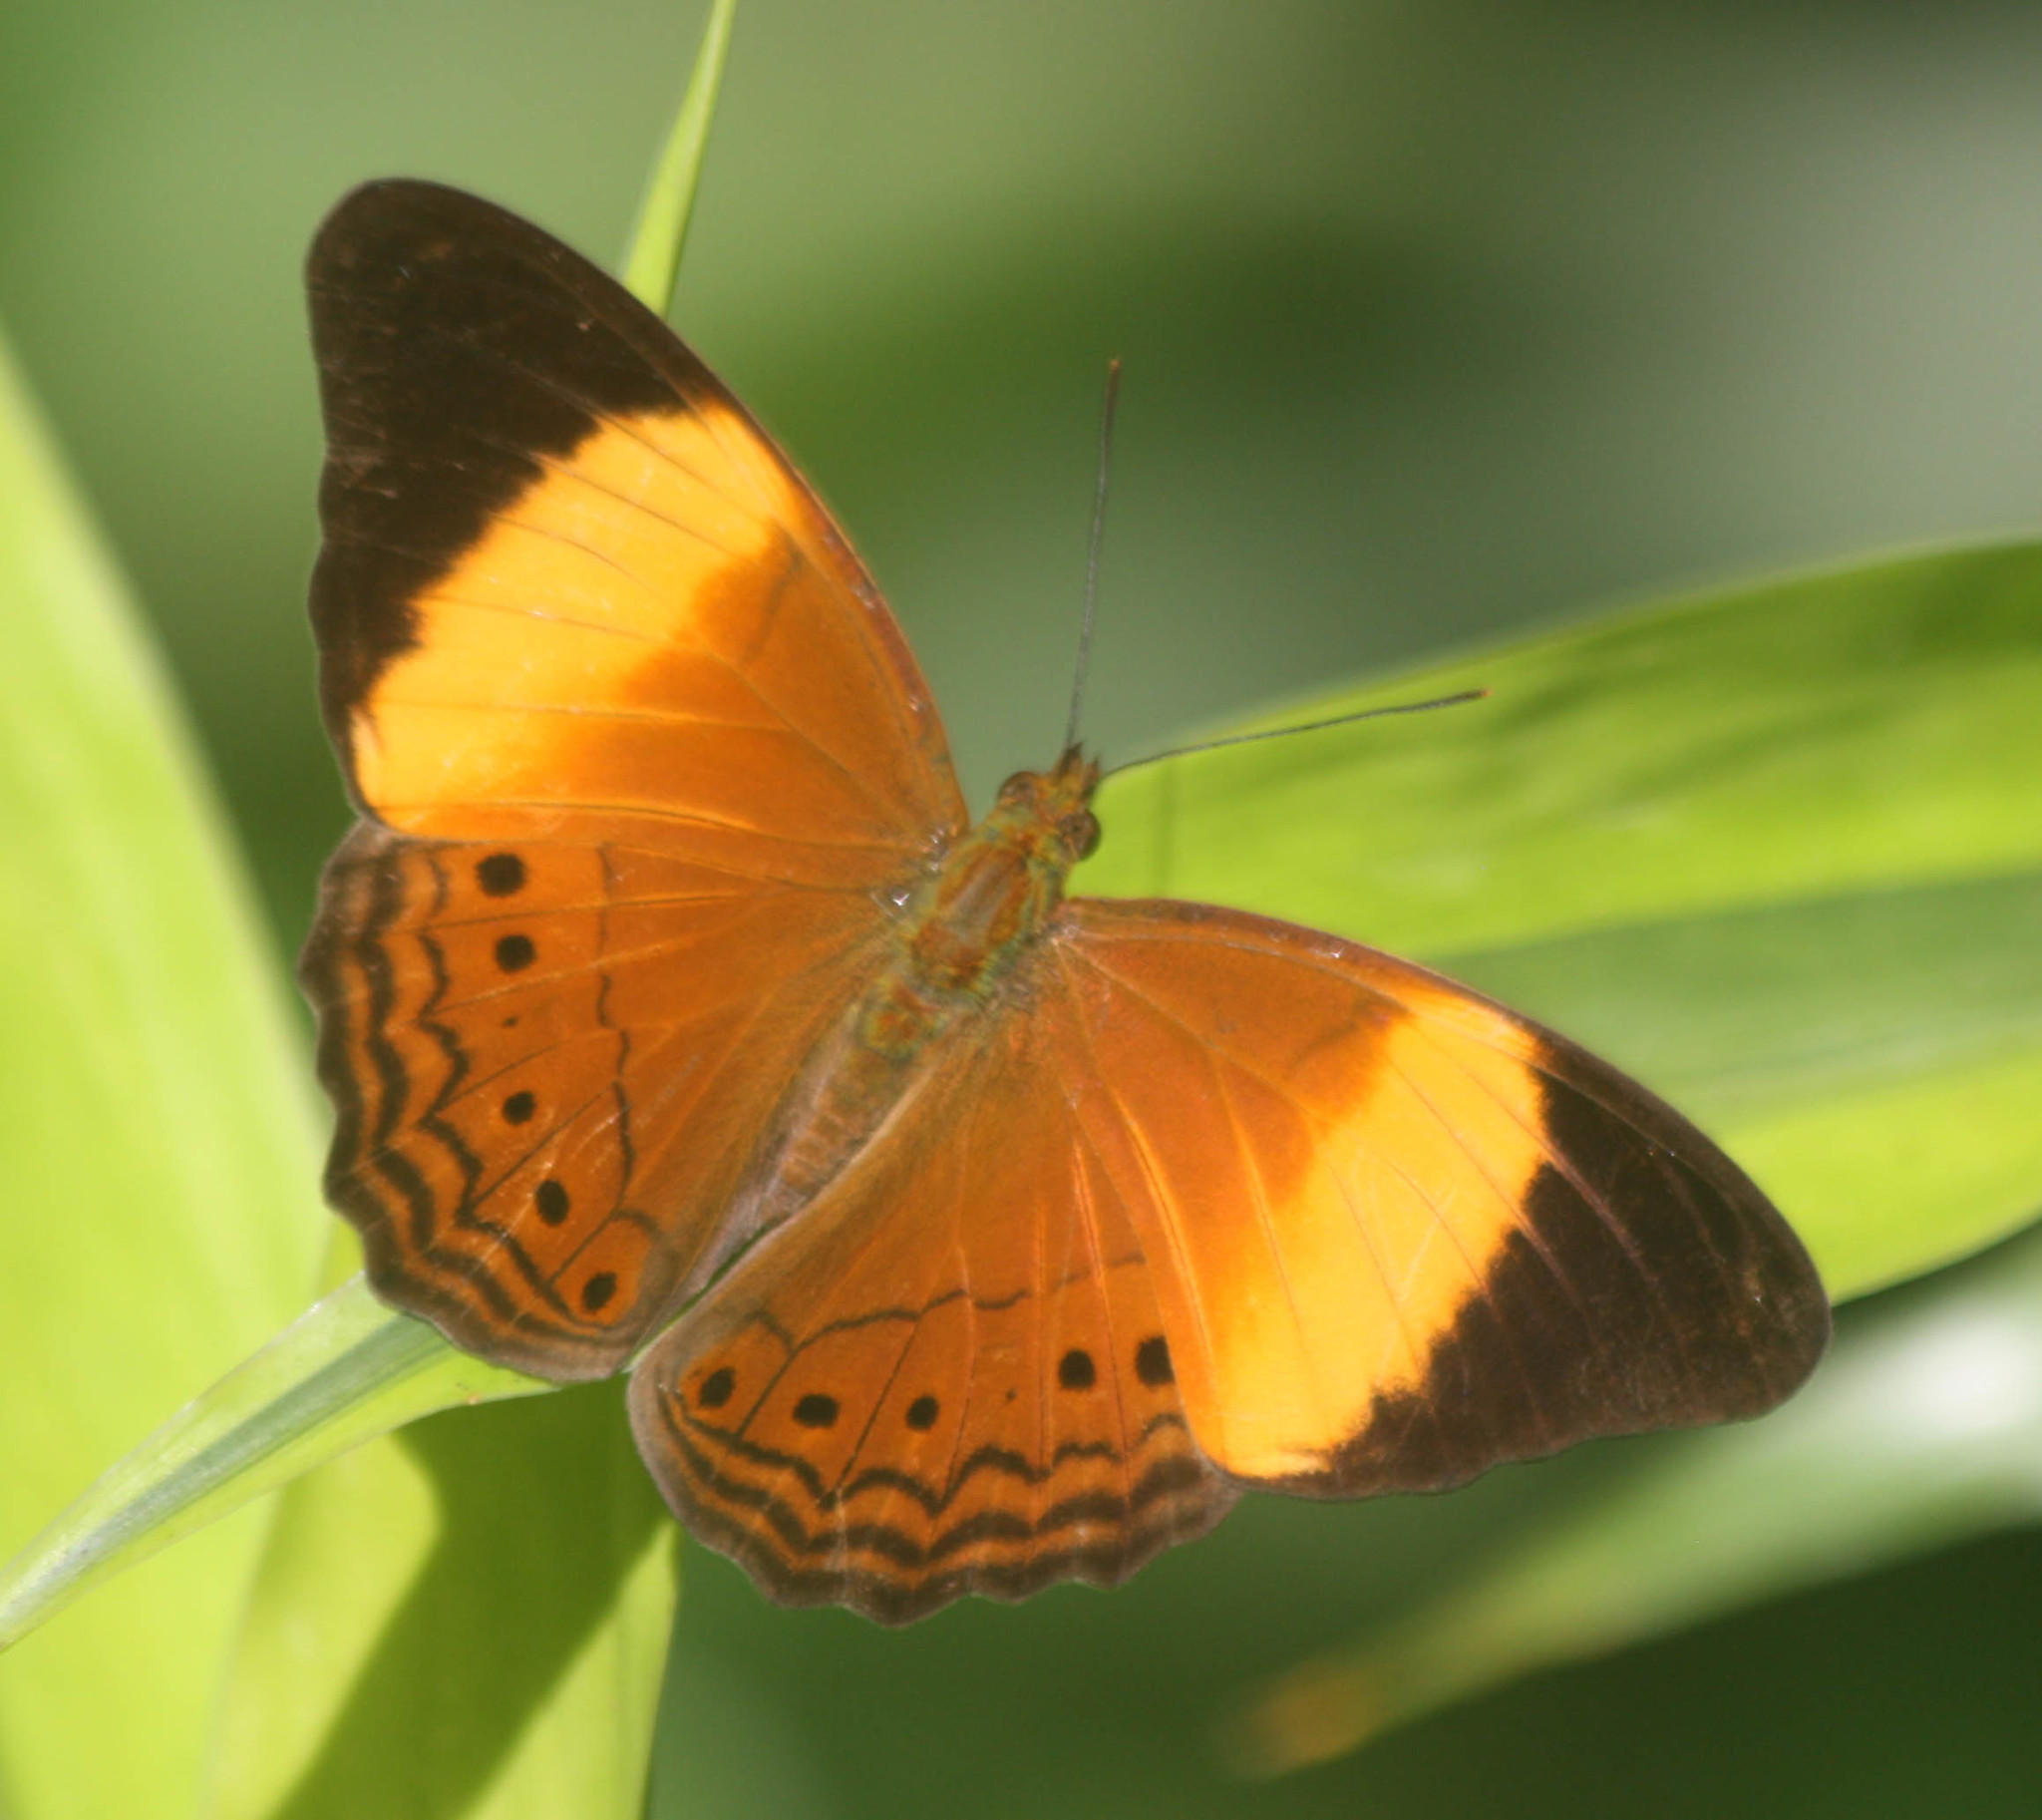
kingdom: Animalia
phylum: Arthropoda
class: Insecta
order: Lepidoptera
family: Nymphalidae
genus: Cirrochroa
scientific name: Cirrochroa orissa
